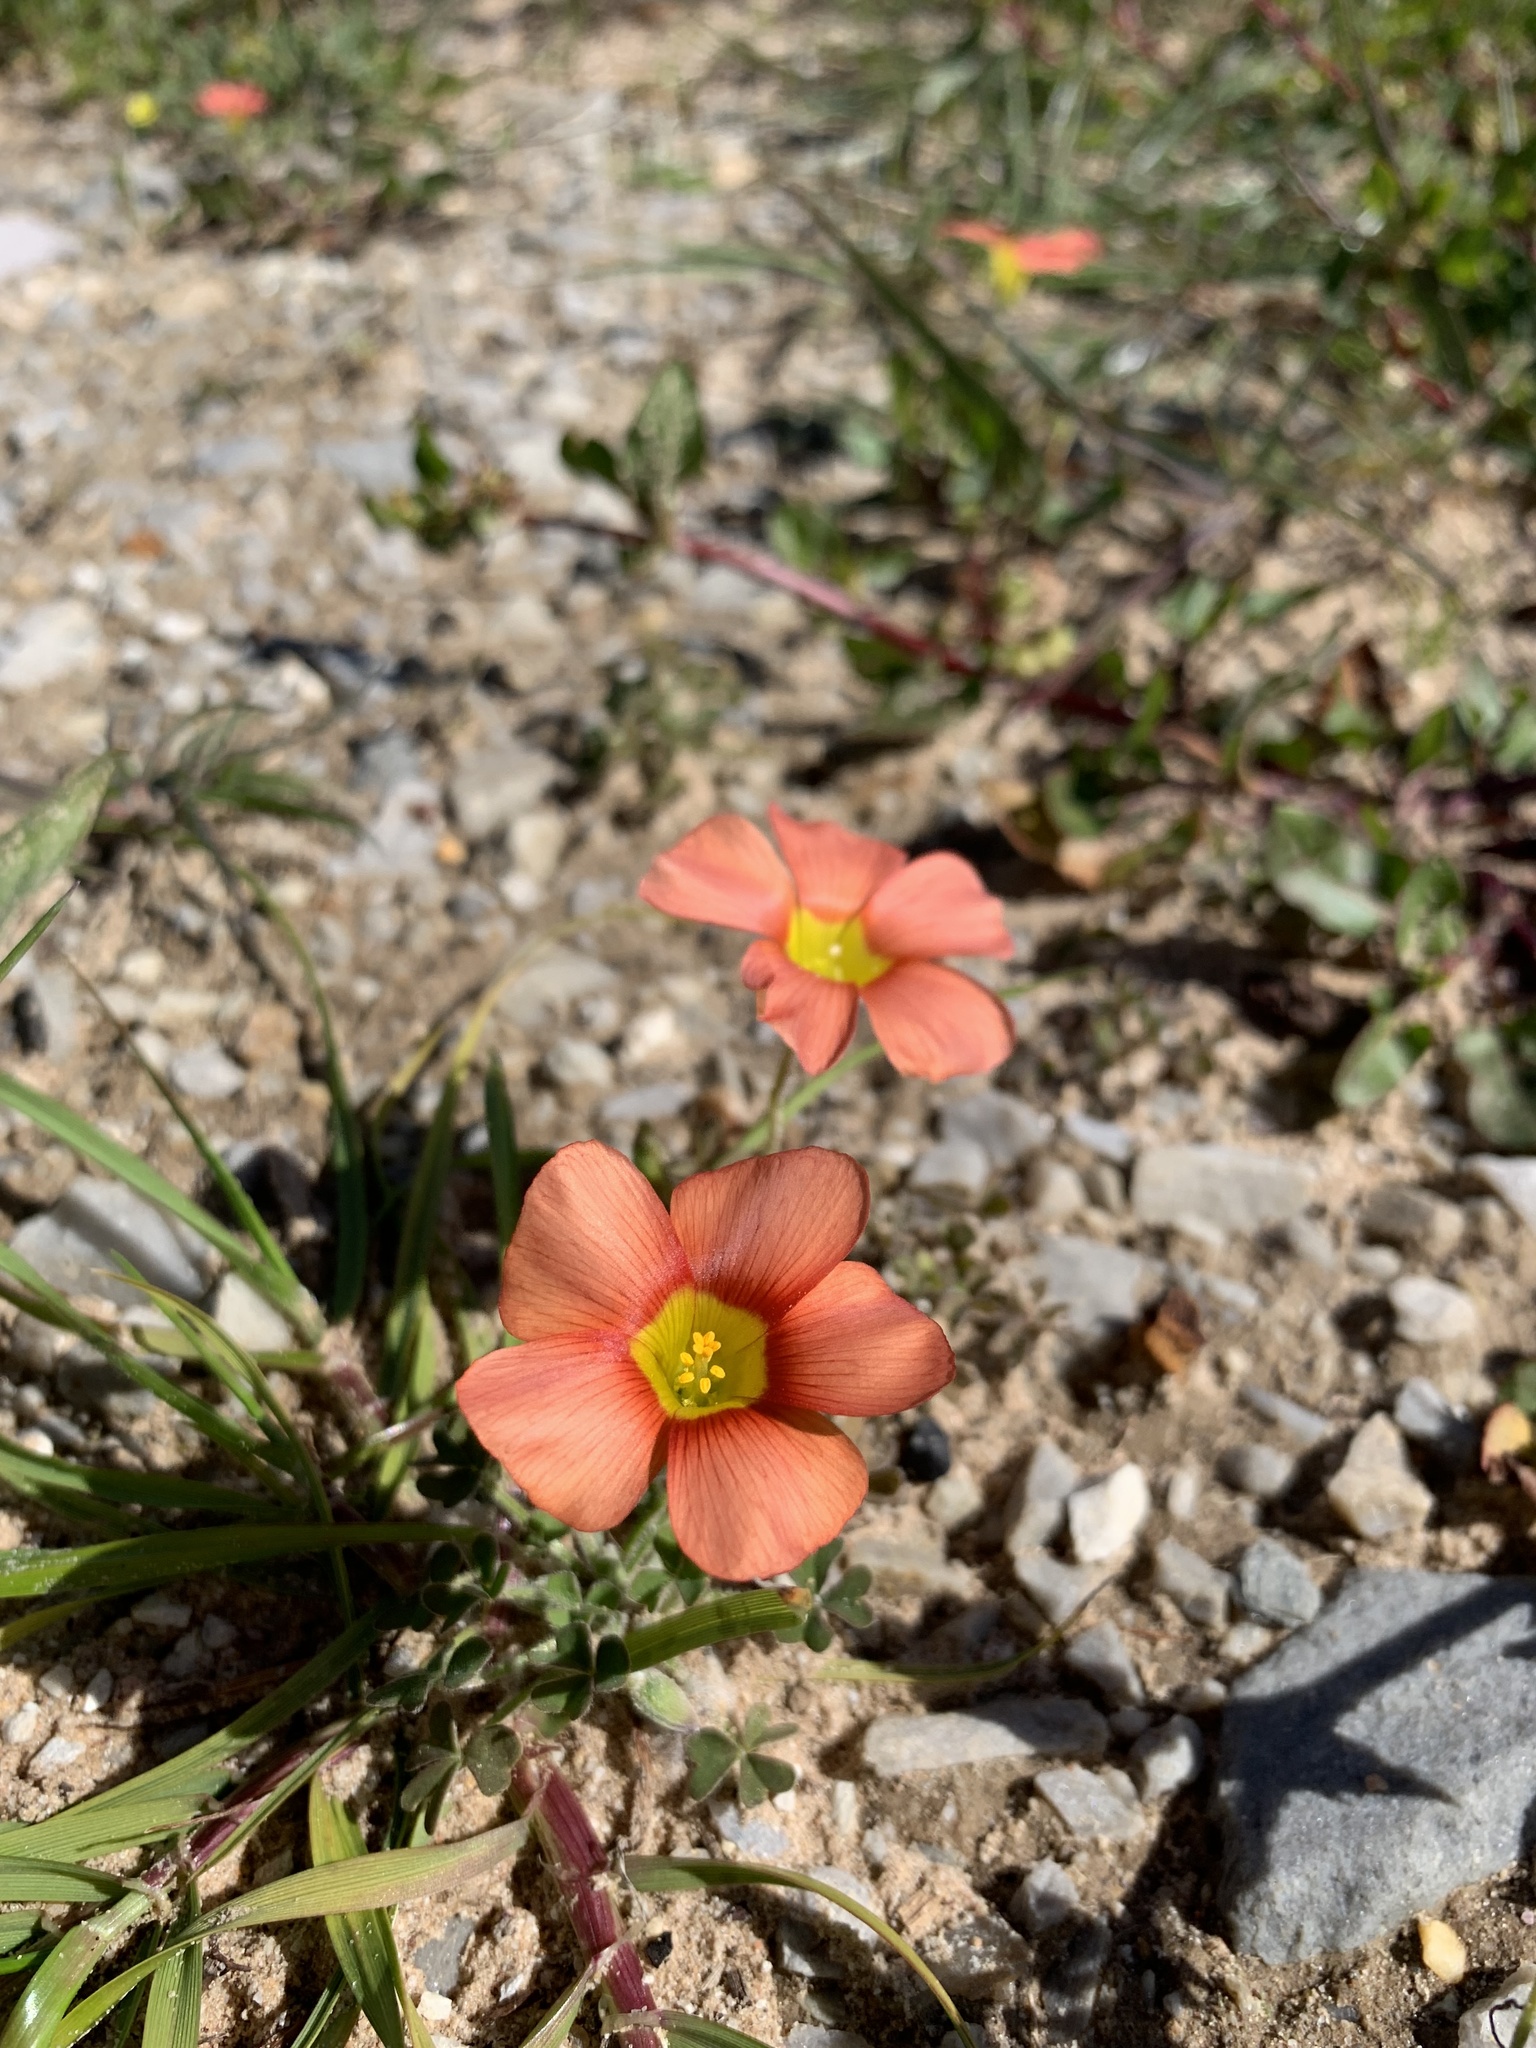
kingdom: Plantae
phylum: Tracheophyta
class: Magnoliopsida
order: Oxalidales
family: Oxalidaceae
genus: Oxalis
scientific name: Oxalis obtusa
